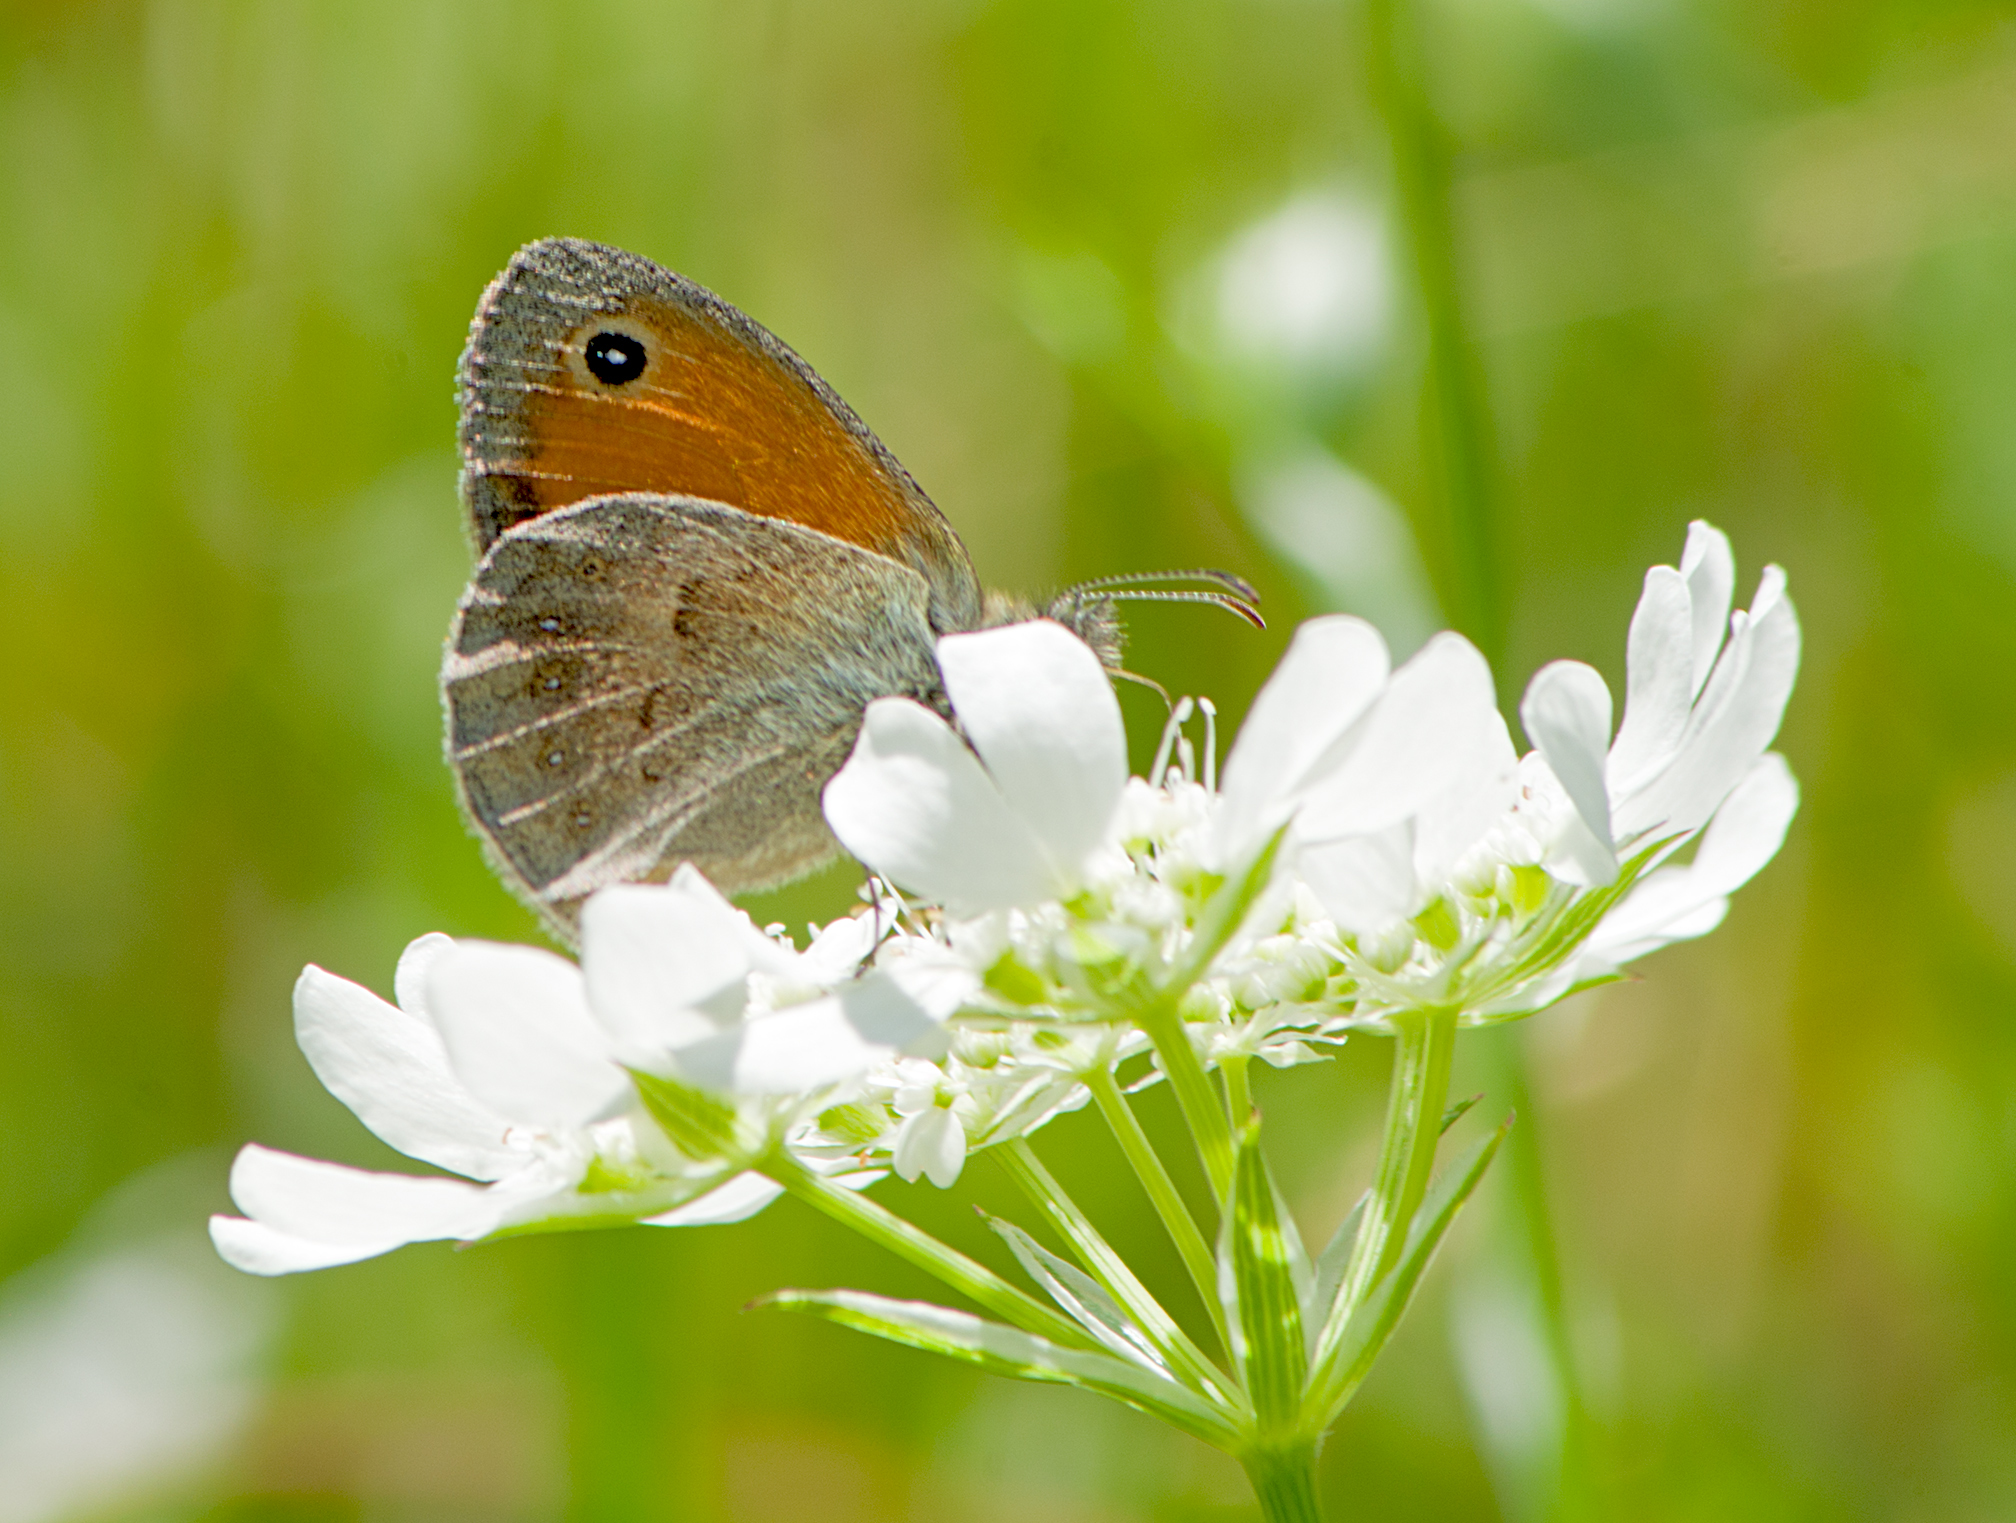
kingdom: Animalia
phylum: Arthropoda
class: Insecta
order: Lepidoptera
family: Nymphalidae
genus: Coenonympha
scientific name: Coenonympha pamphilus
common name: Small heath
